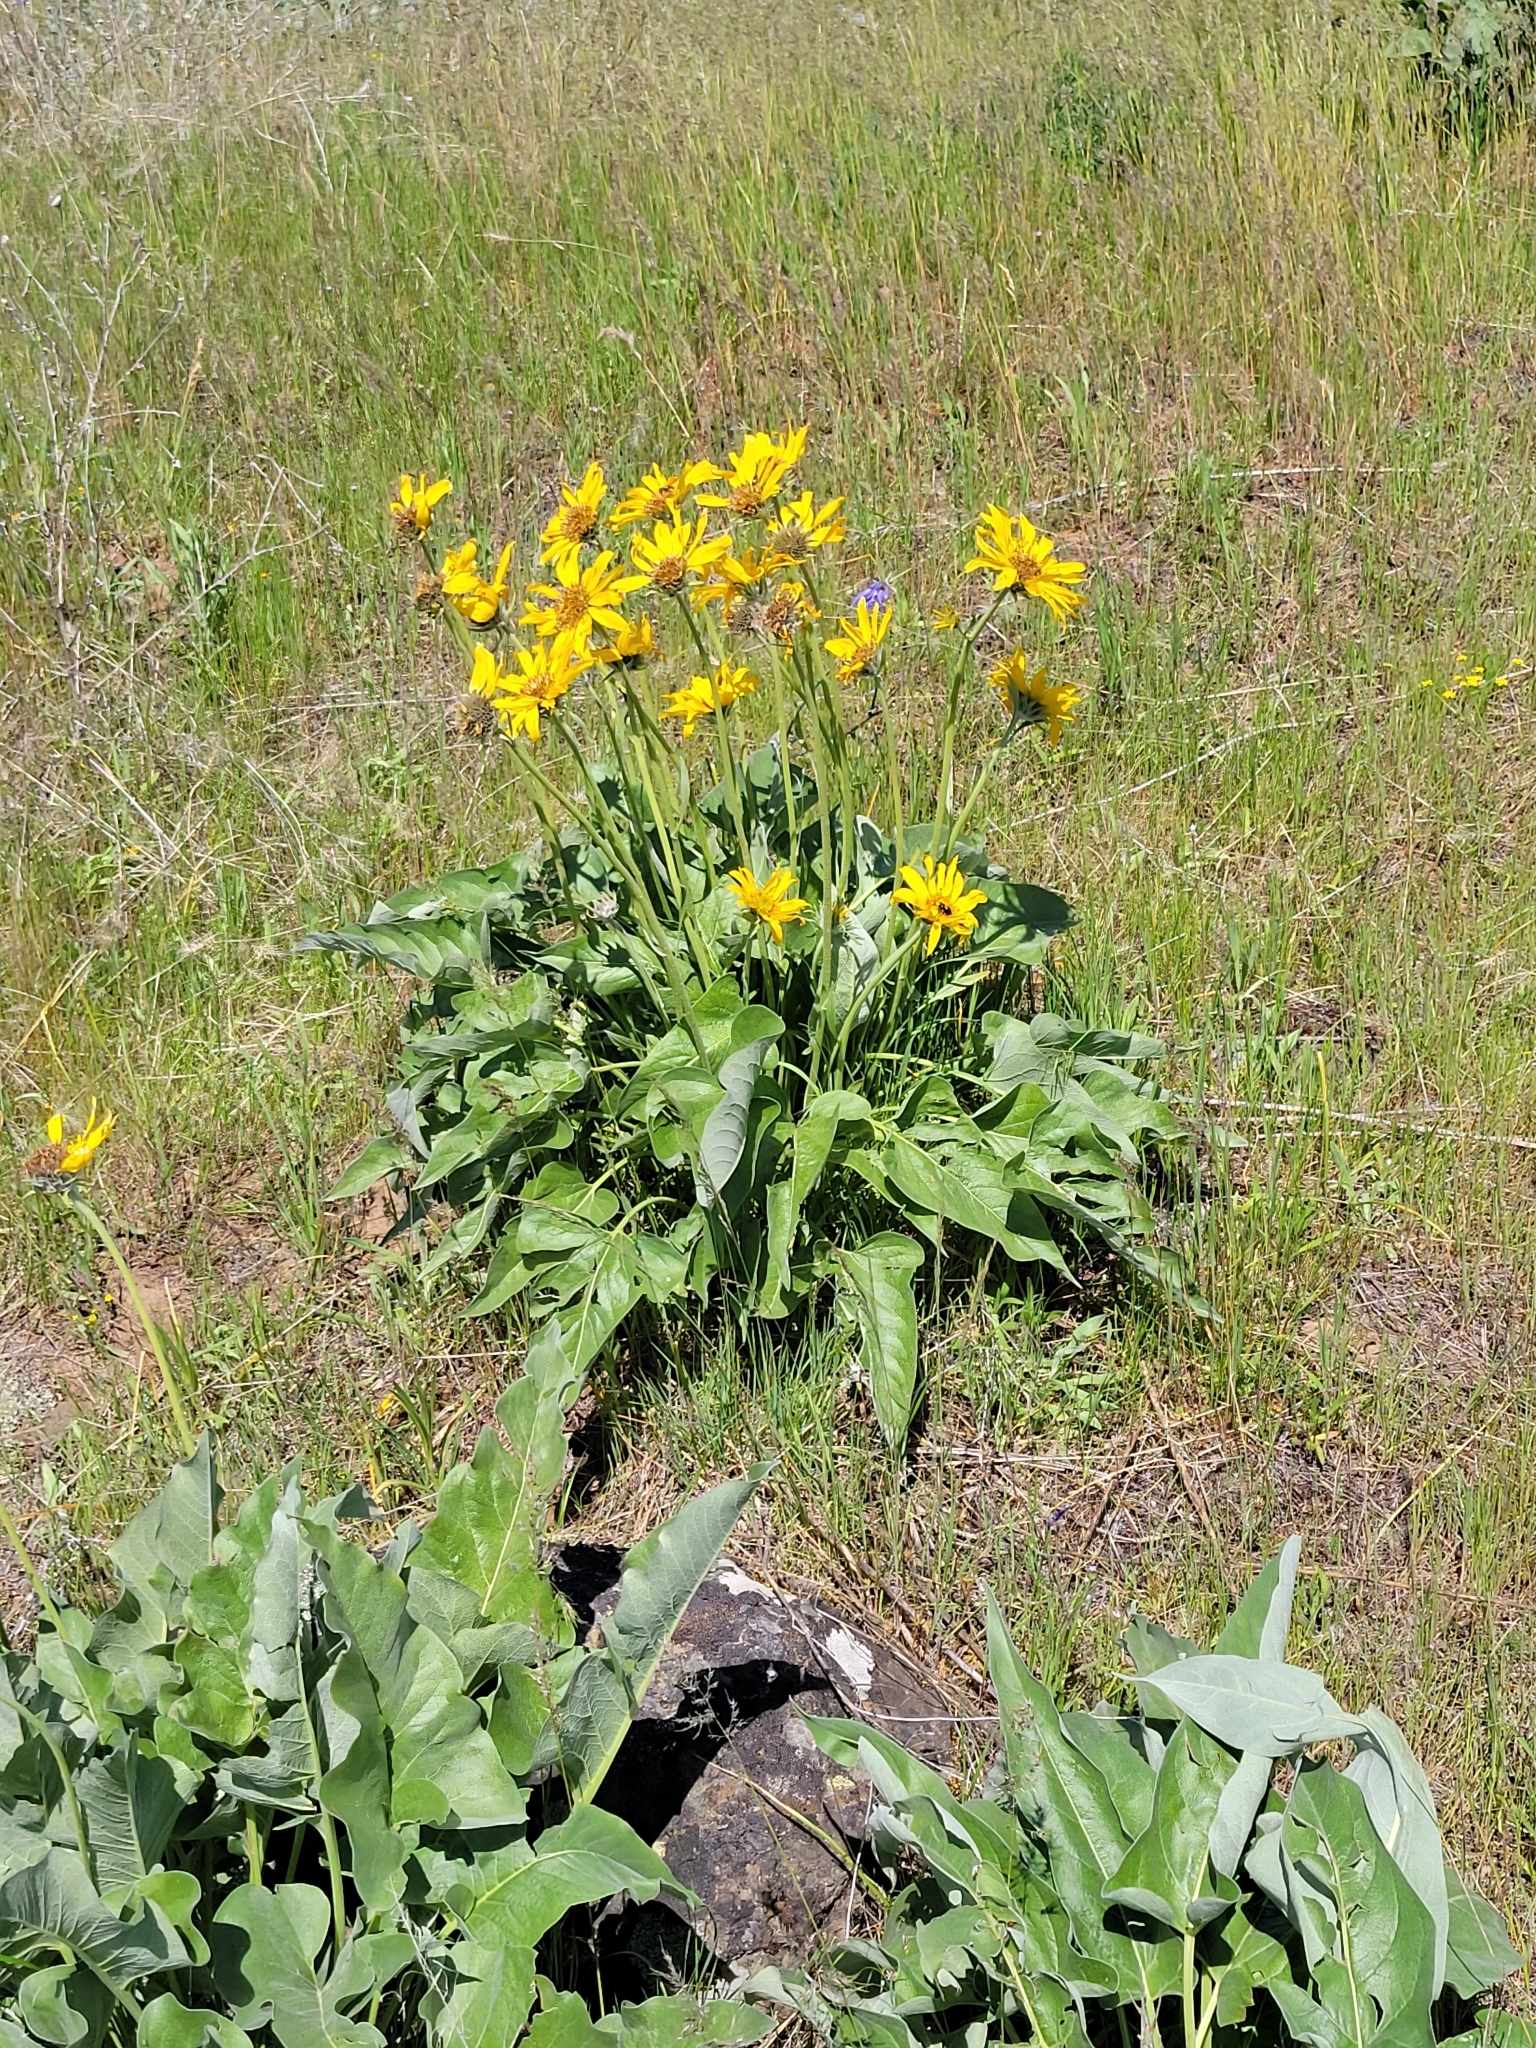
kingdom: Plantae
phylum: Tracheophyta
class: Magnoliopsida
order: Asterales
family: Asteraceae
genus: Wyethia
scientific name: Wyethia sagittata
